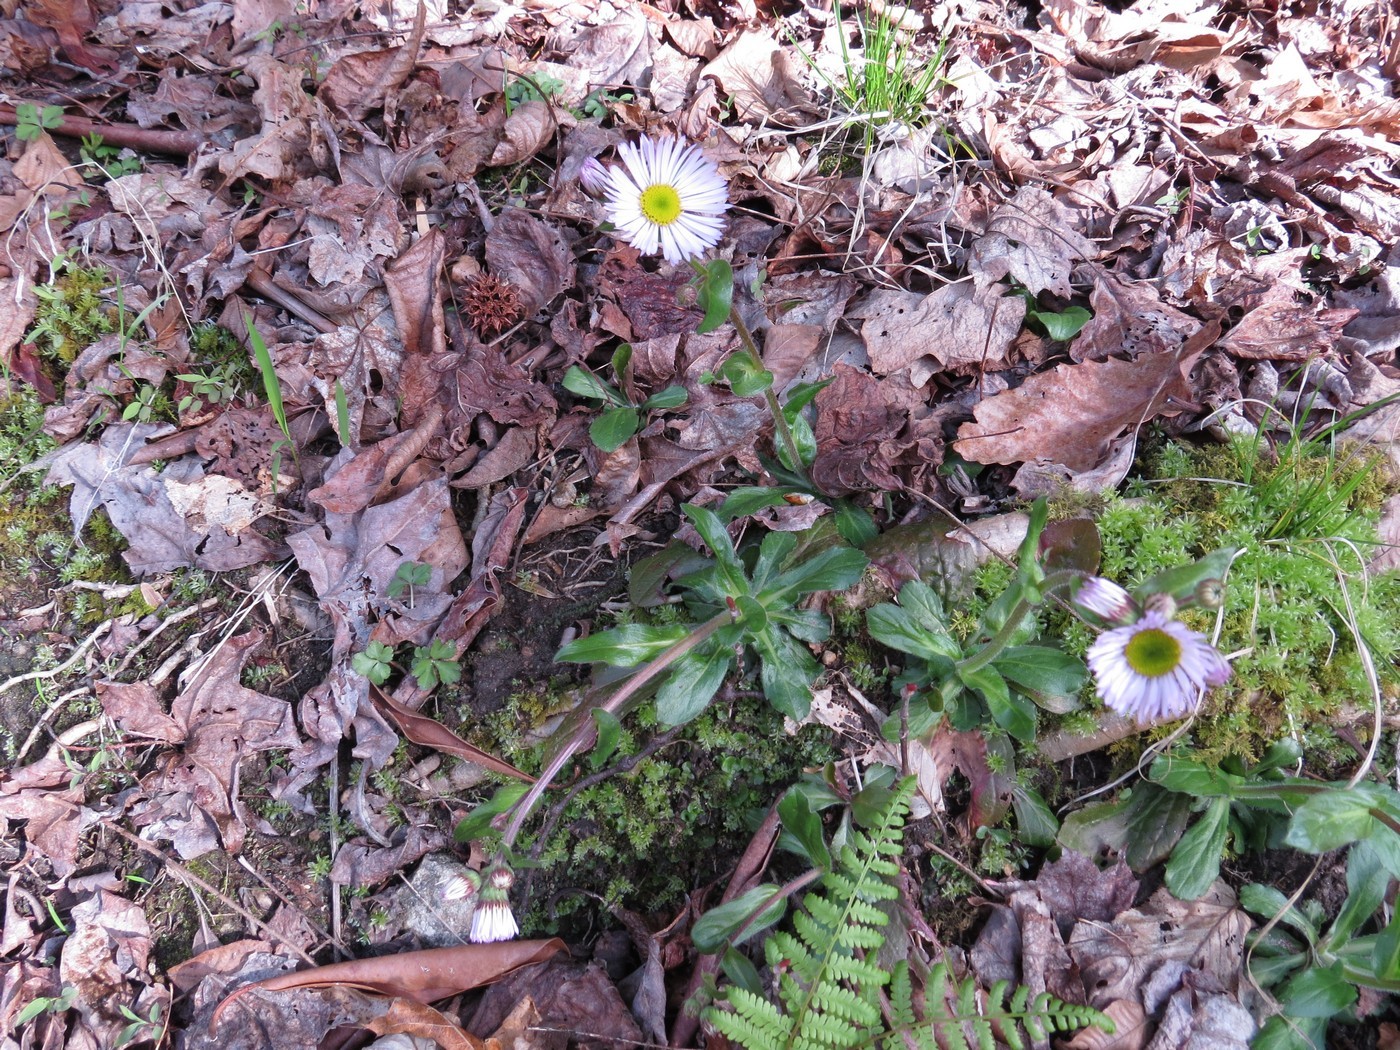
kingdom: Plantae
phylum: Tracheophyta
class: Magnoliopsida
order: Asterales
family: Asteraceae
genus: Erigeron
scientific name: Erigeron pulchellus
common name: Hairy fleabane
